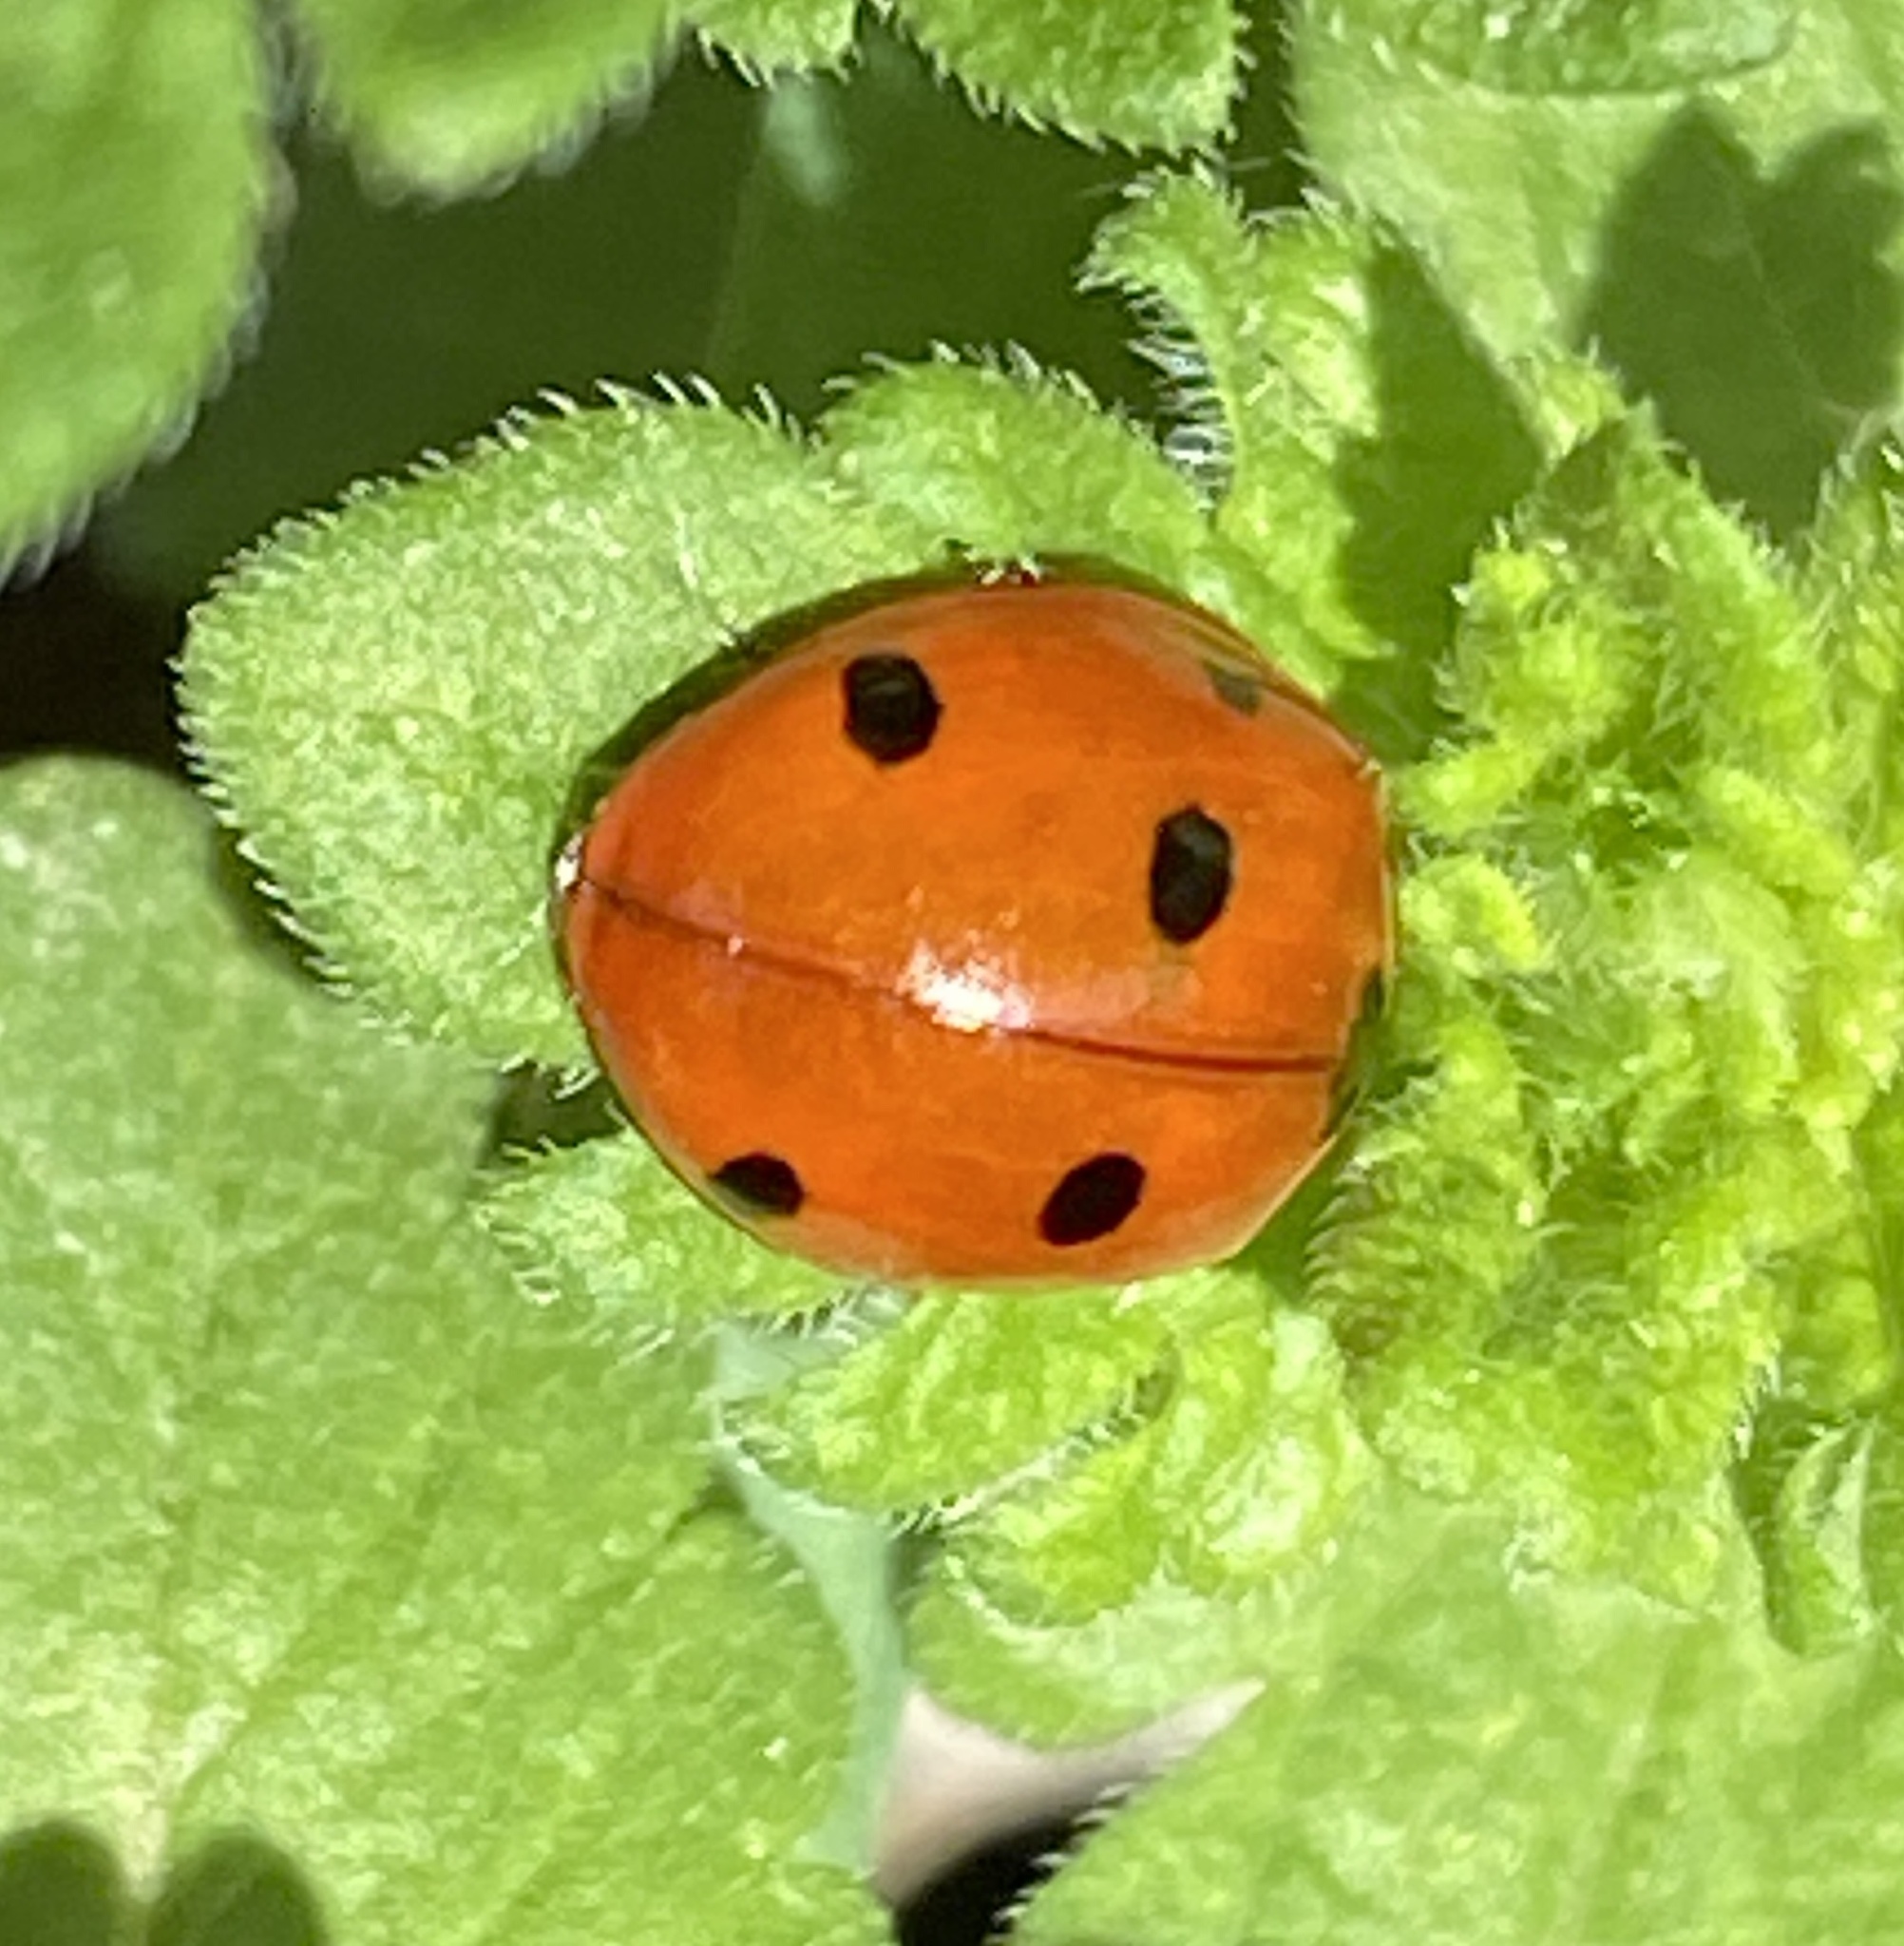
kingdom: Animalia
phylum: Arthropoda
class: Insecta
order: Coleoptera
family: Coccinellidae
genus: Coccinella
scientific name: Coccinella septempunctata
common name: Sevenspotted lady beetle
